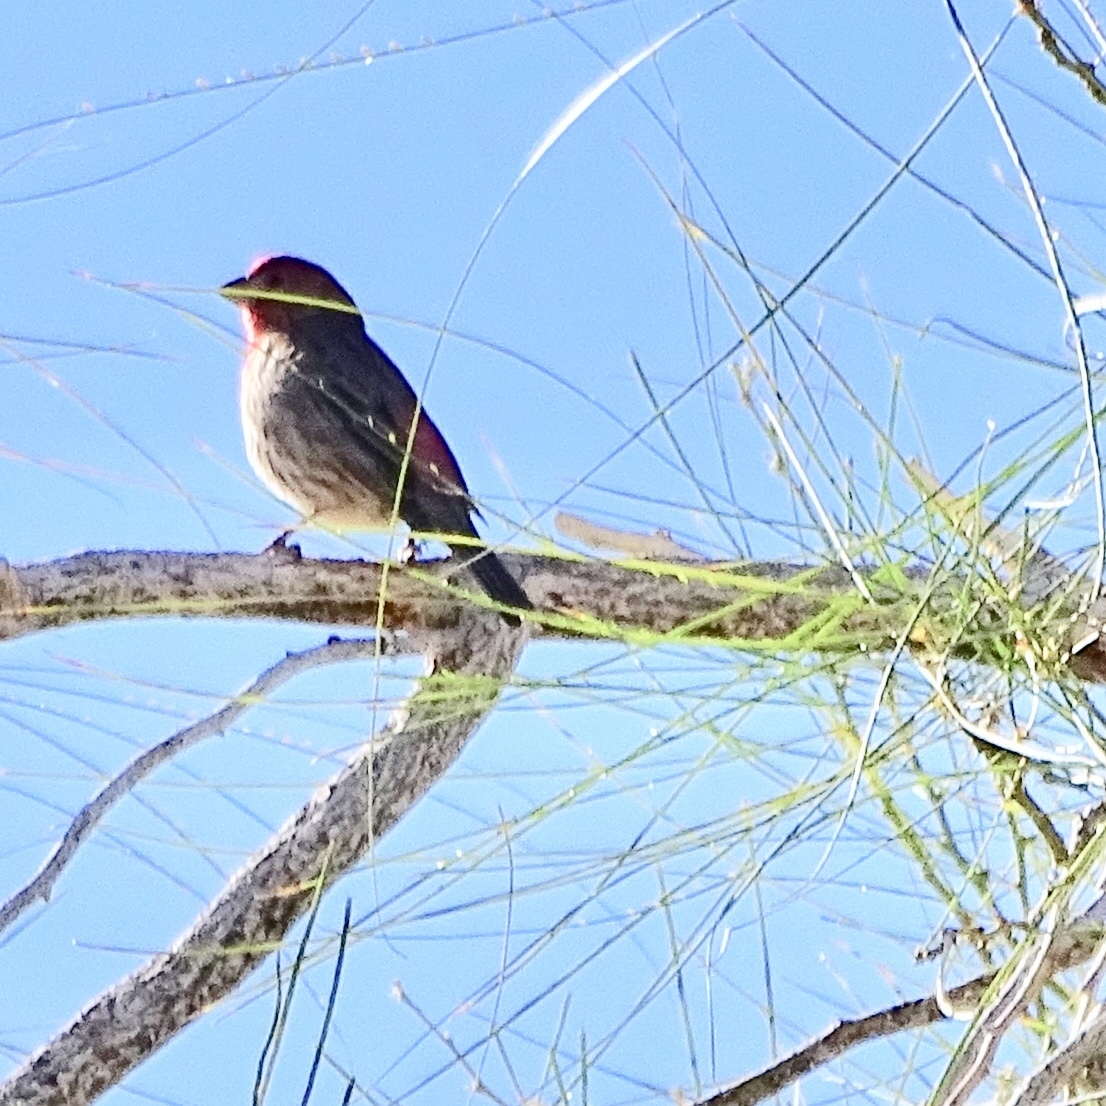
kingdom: Animalia
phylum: Chordata
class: Aves
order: Passeriformes
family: Fringillidae
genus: Haemorhous
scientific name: Haemorhous mexicanus
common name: House finch
